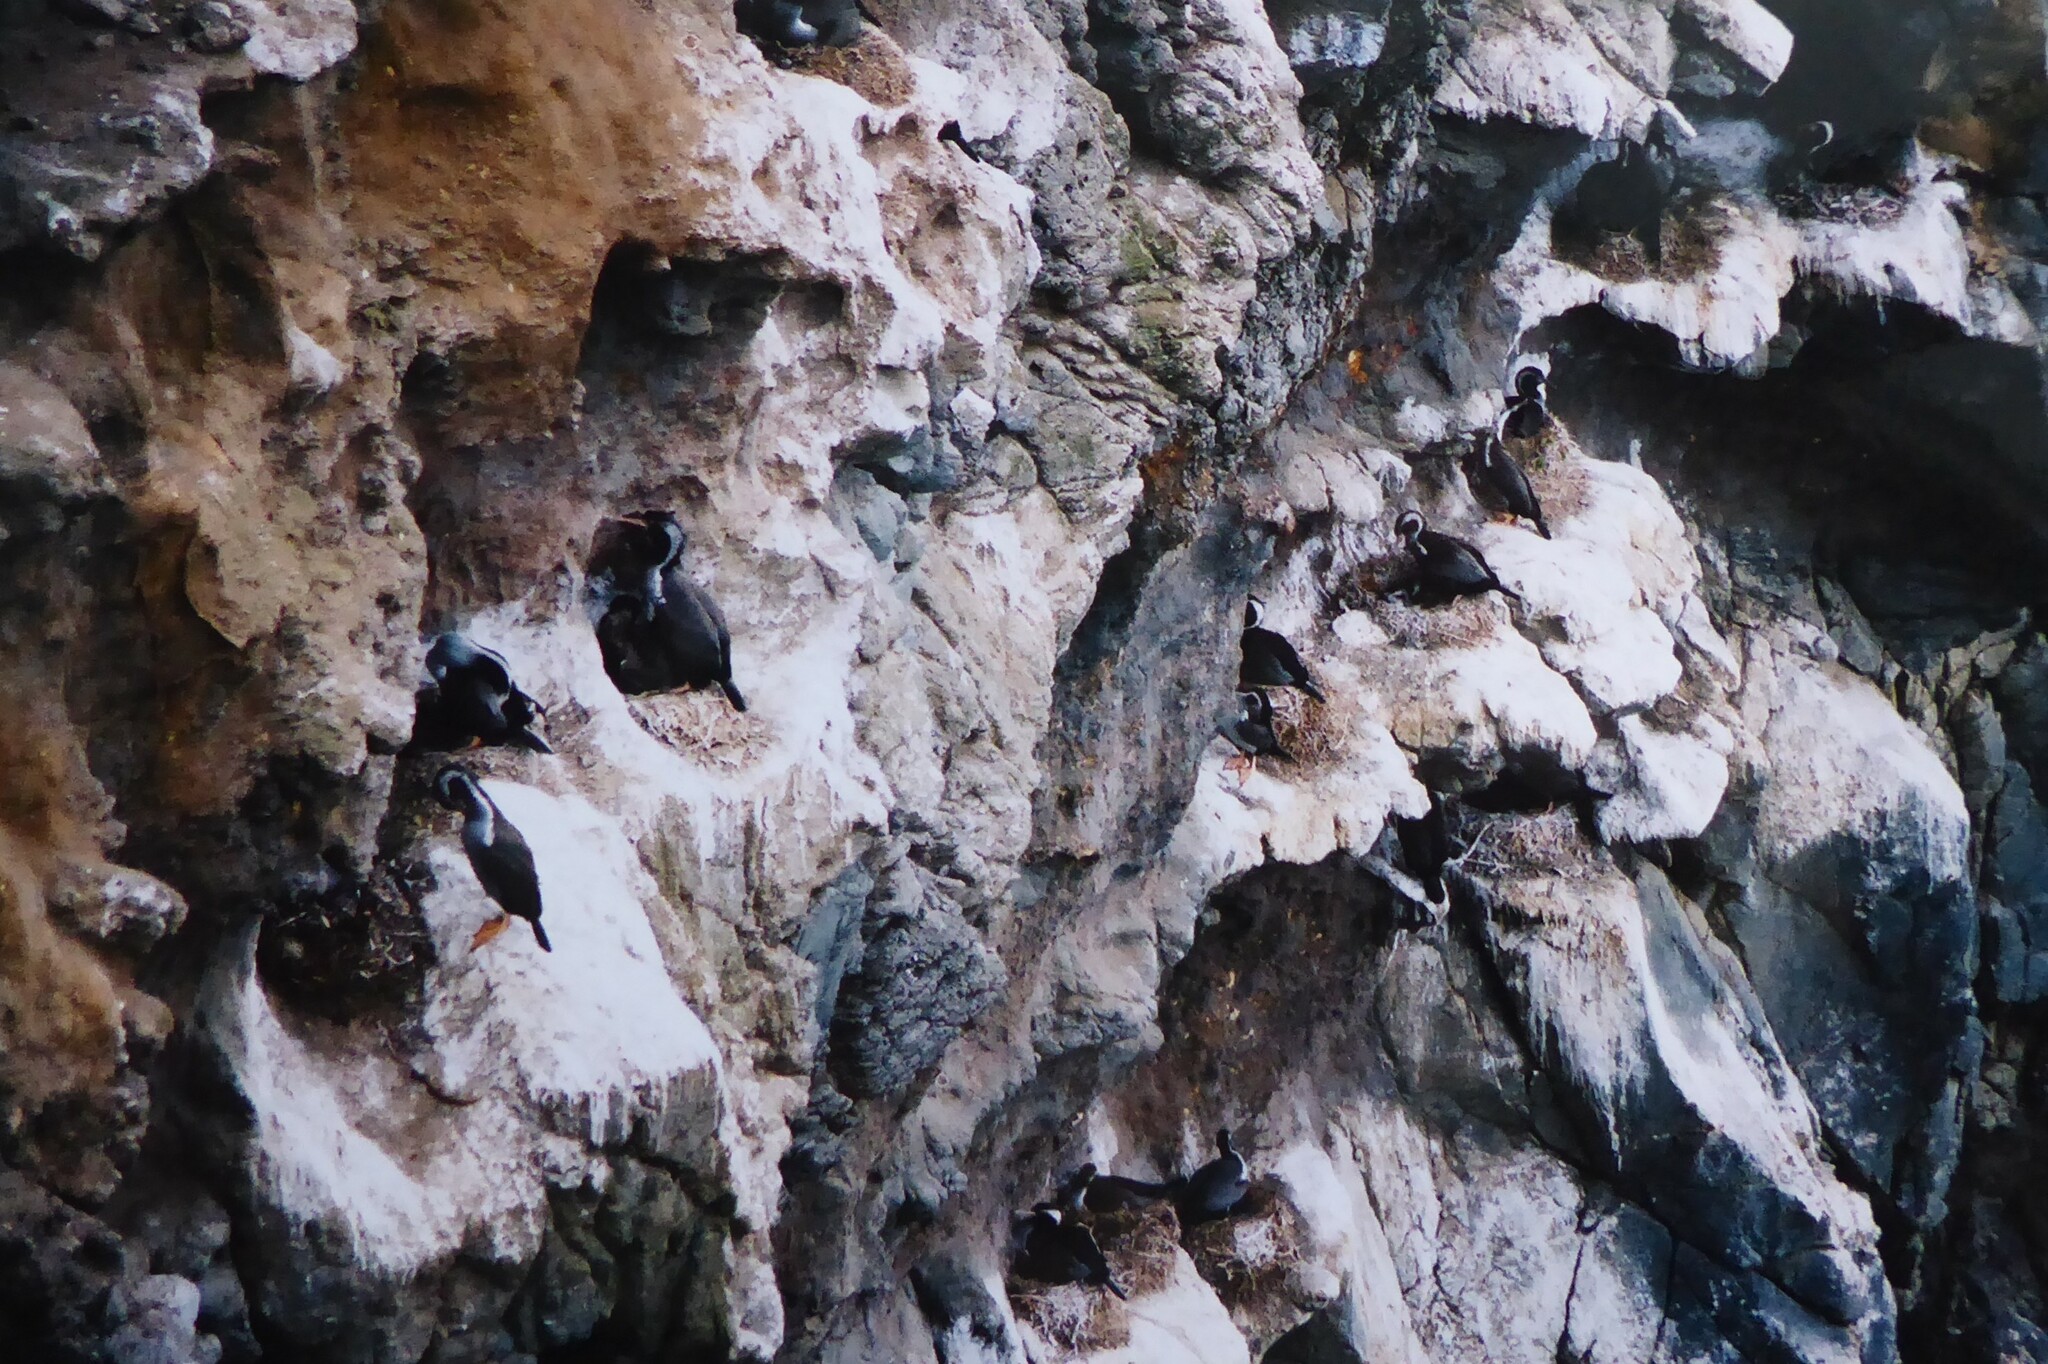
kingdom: Animalia
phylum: Chordata
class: Aves
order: Suliformes
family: Phalacrocoracidae
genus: Phalacrocorax
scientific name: Phalacrocorax punctatus
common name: Spotted shag
